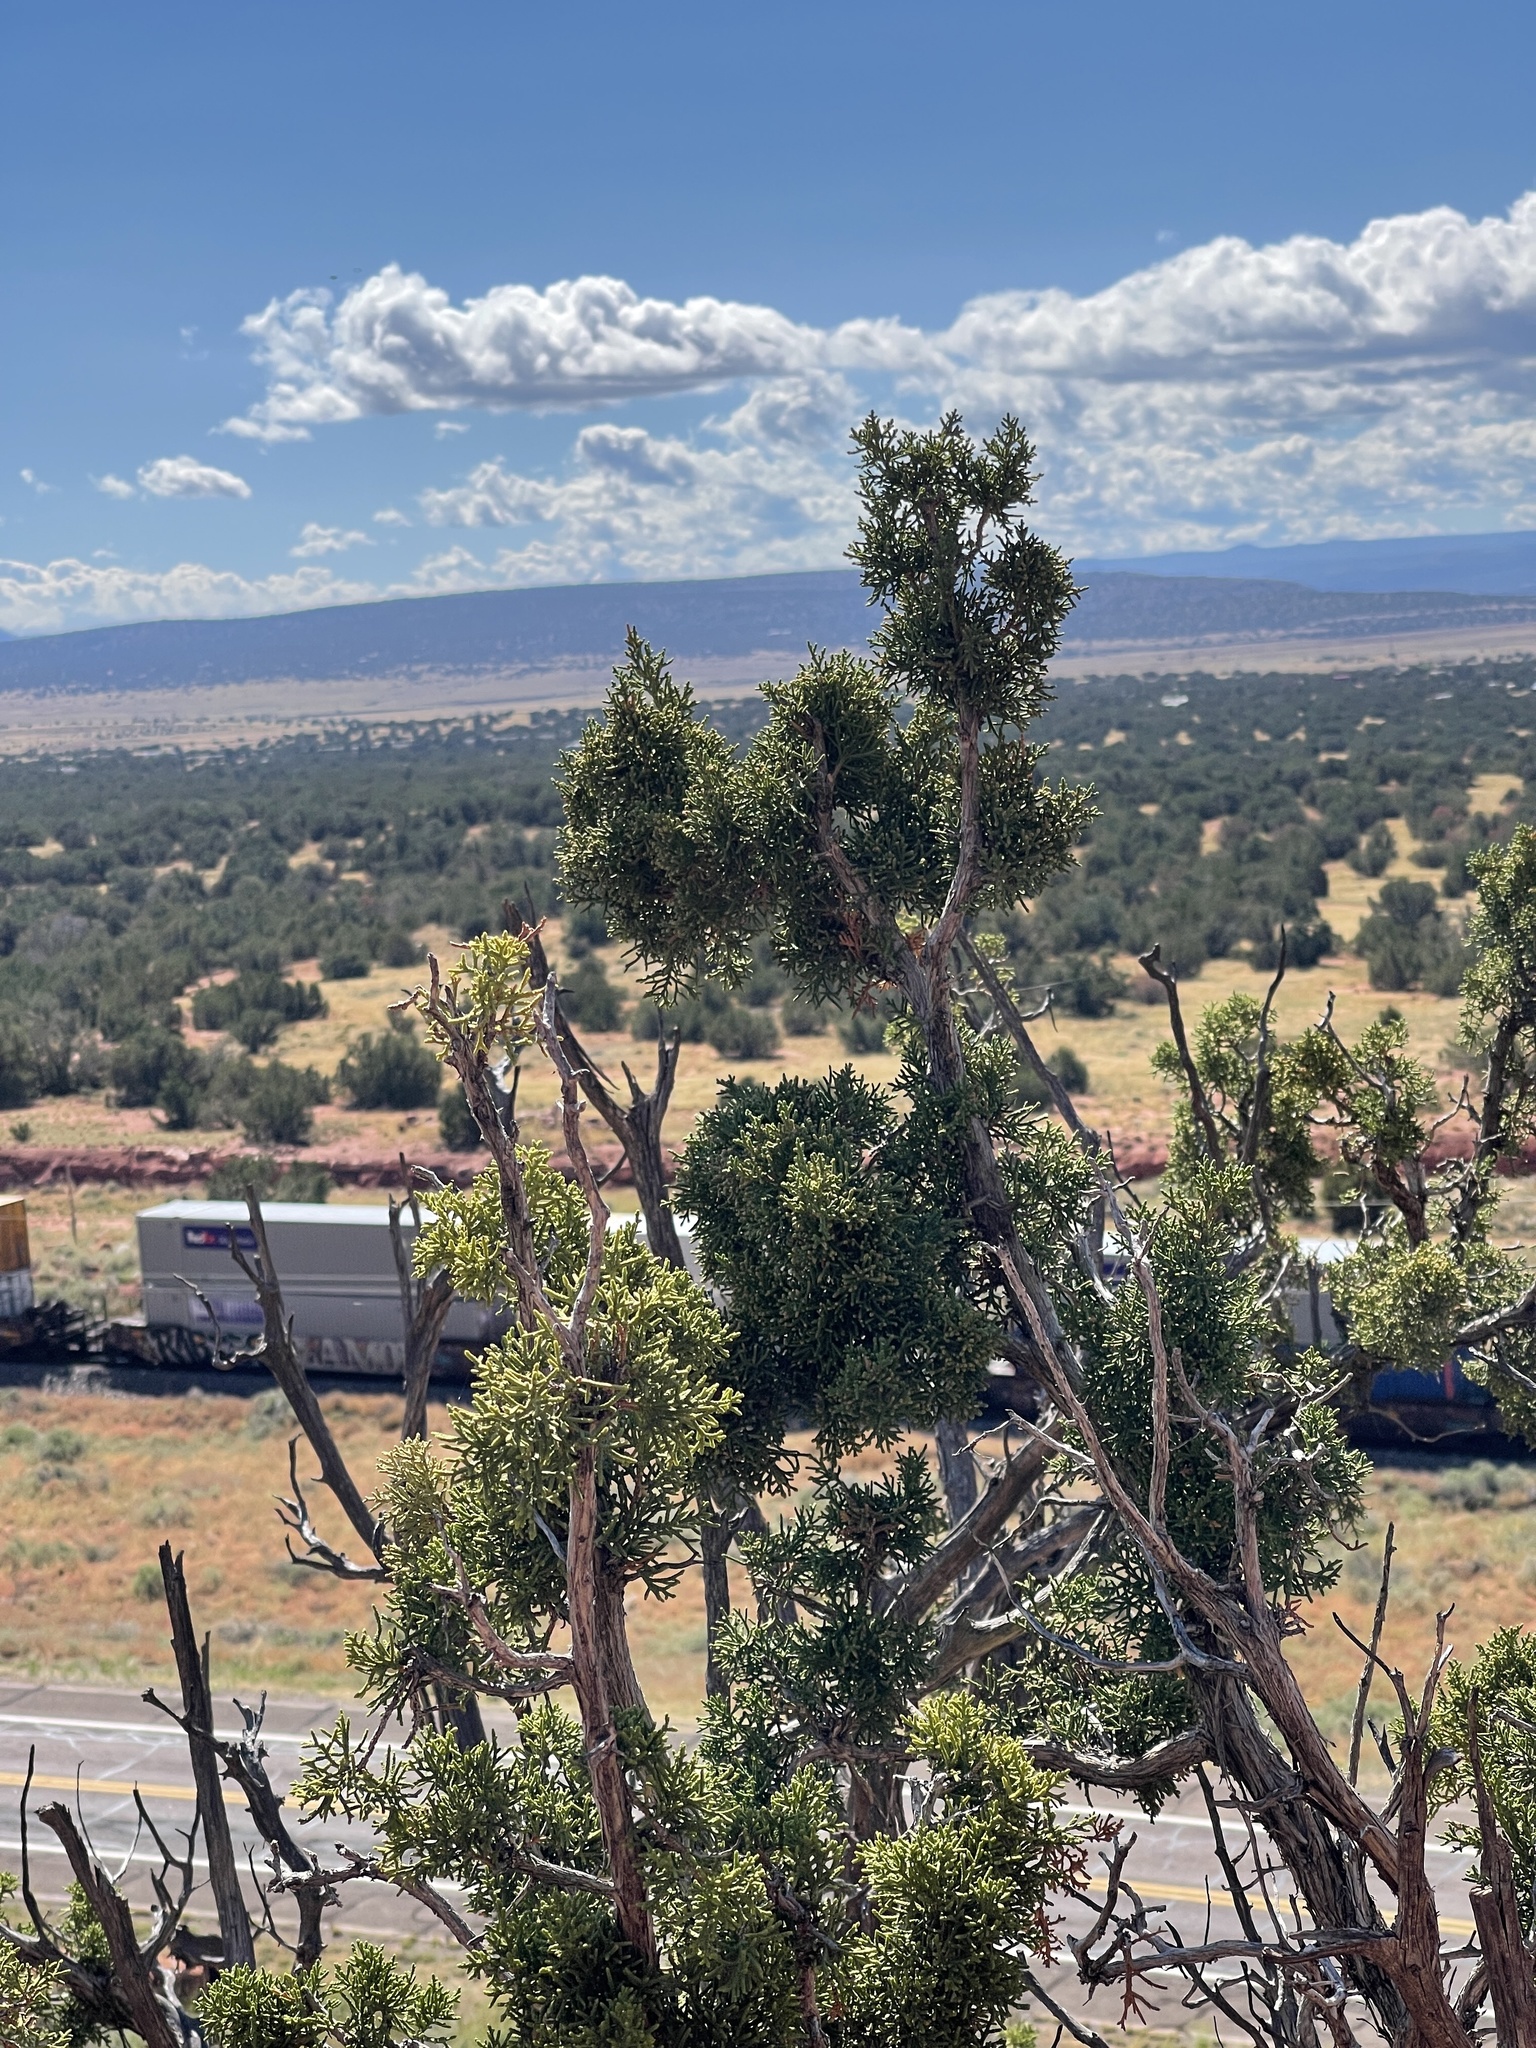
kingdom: Plantae
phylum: Tracheophyta
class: Pinopsida
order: Pinales
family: Cupressaceae
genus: Juniperus
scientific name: Juniperus osteosperma
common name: Utah juniper
